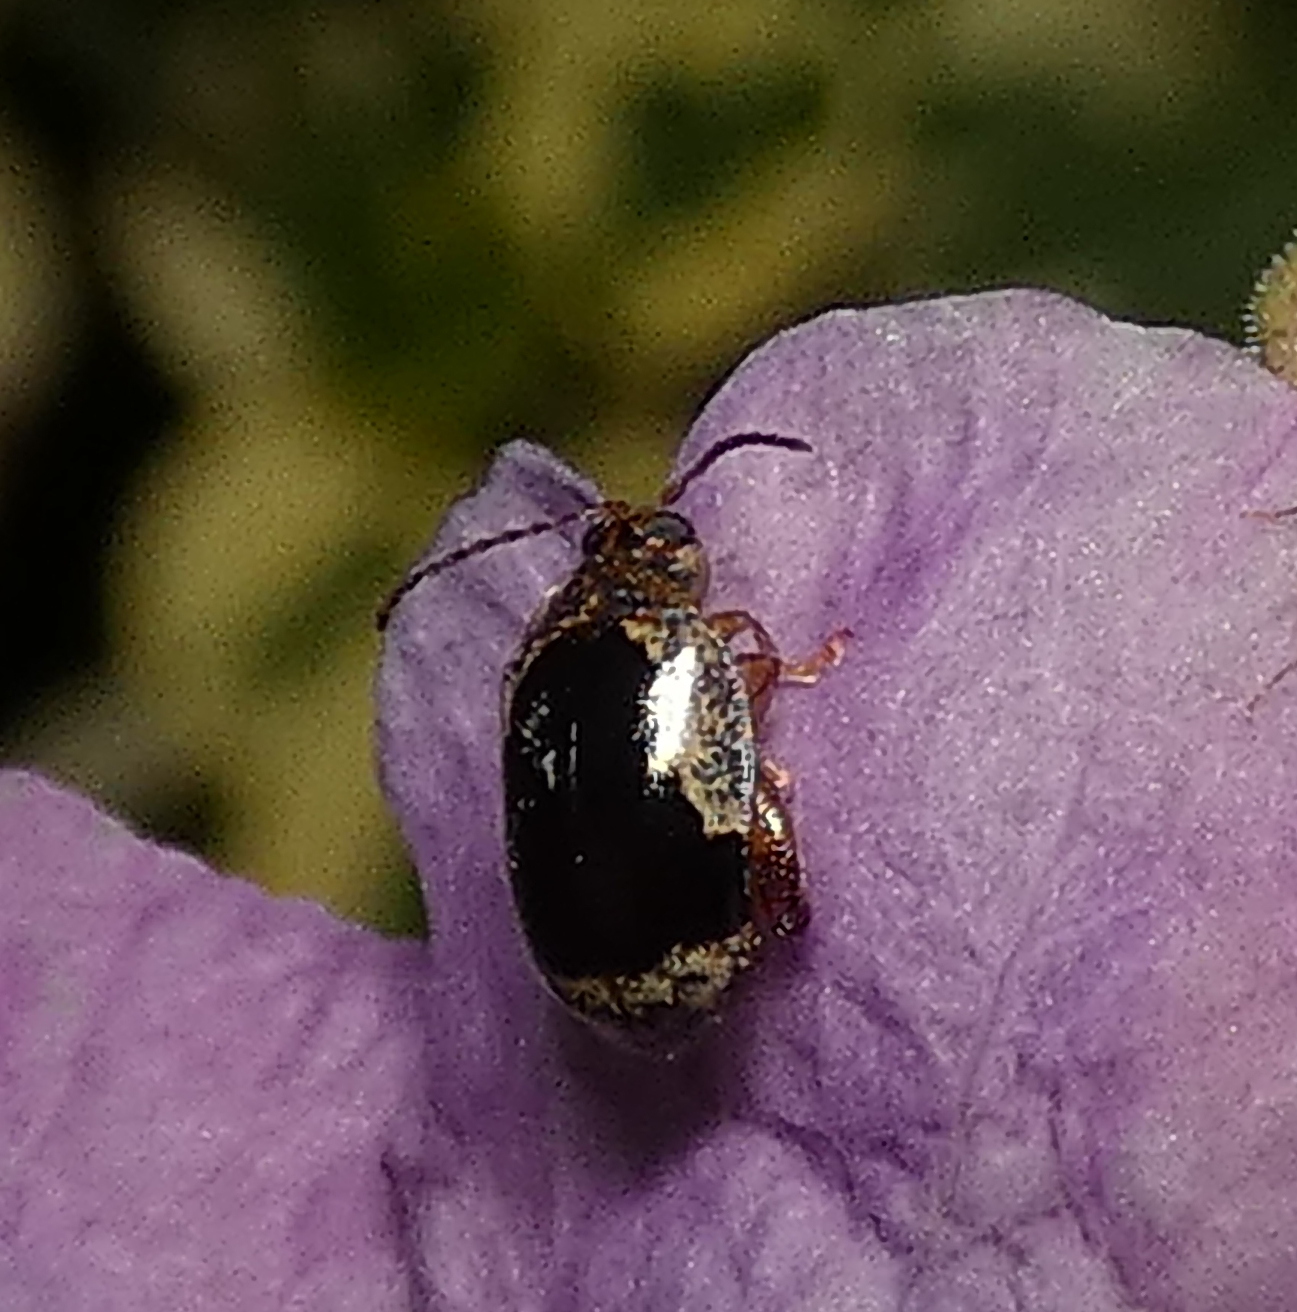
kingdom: Animalia
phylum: Arthropoda
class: Insecta
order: Coleoptera
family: Chrysomelidae
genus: Alagoasa
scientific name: Alagoasa
